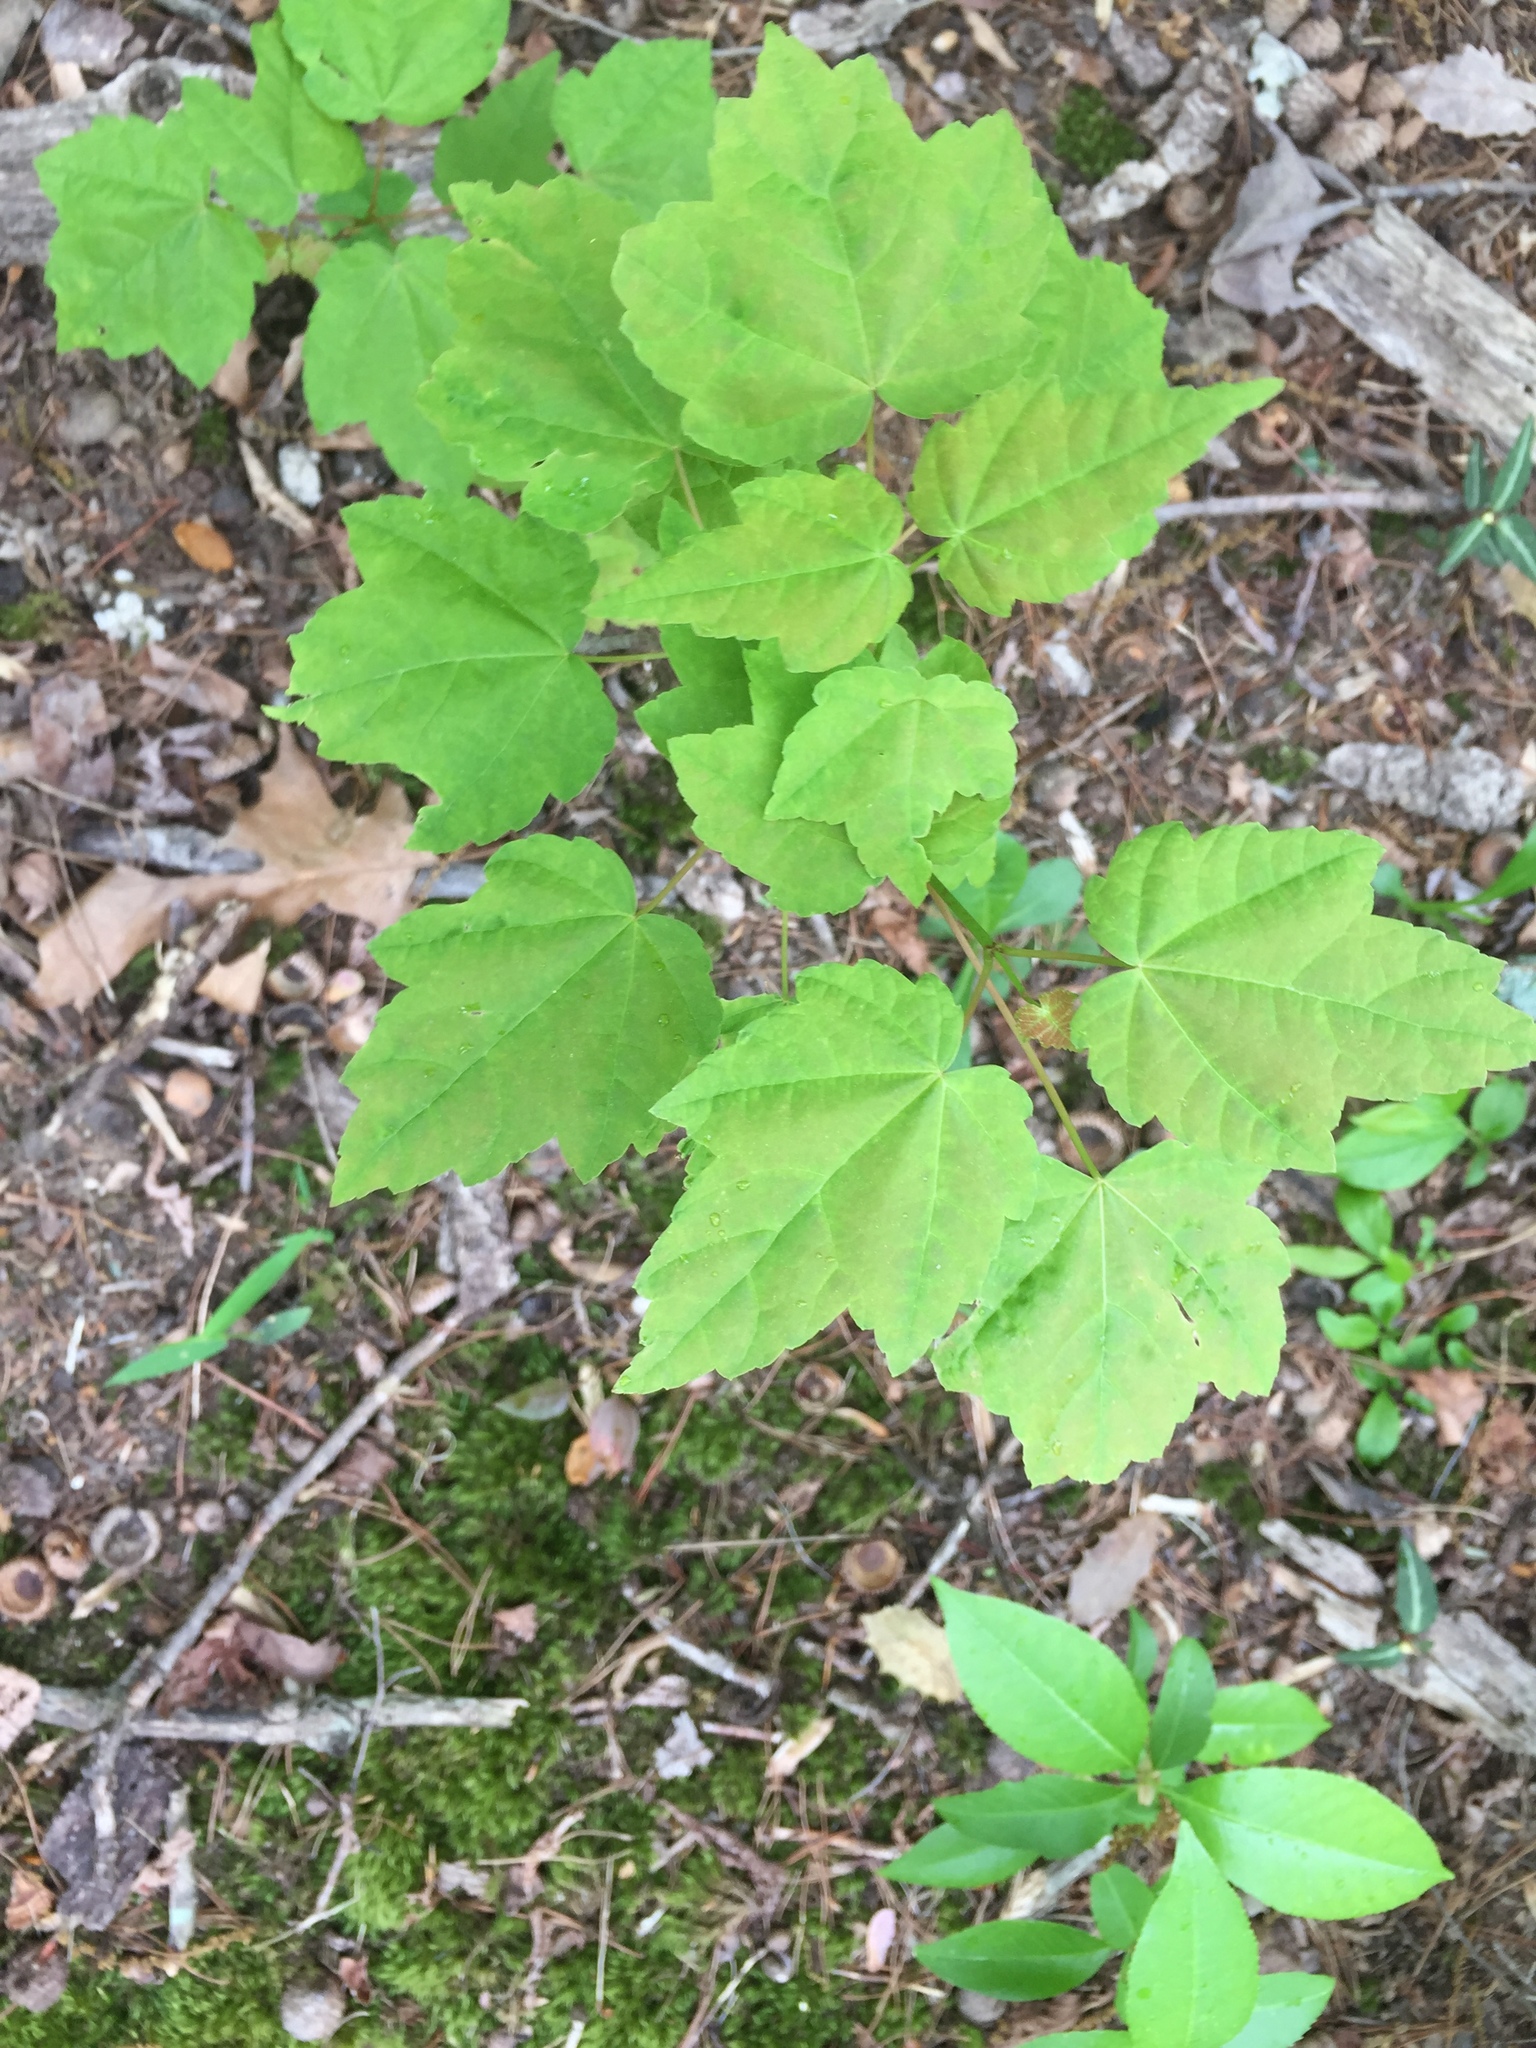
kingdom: Plantae
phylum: Tracheophyta
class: Magnoliopsida
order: Sapindales
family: Sapindaceae
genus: Acer
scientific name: Acer rubrum
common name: Red maple
